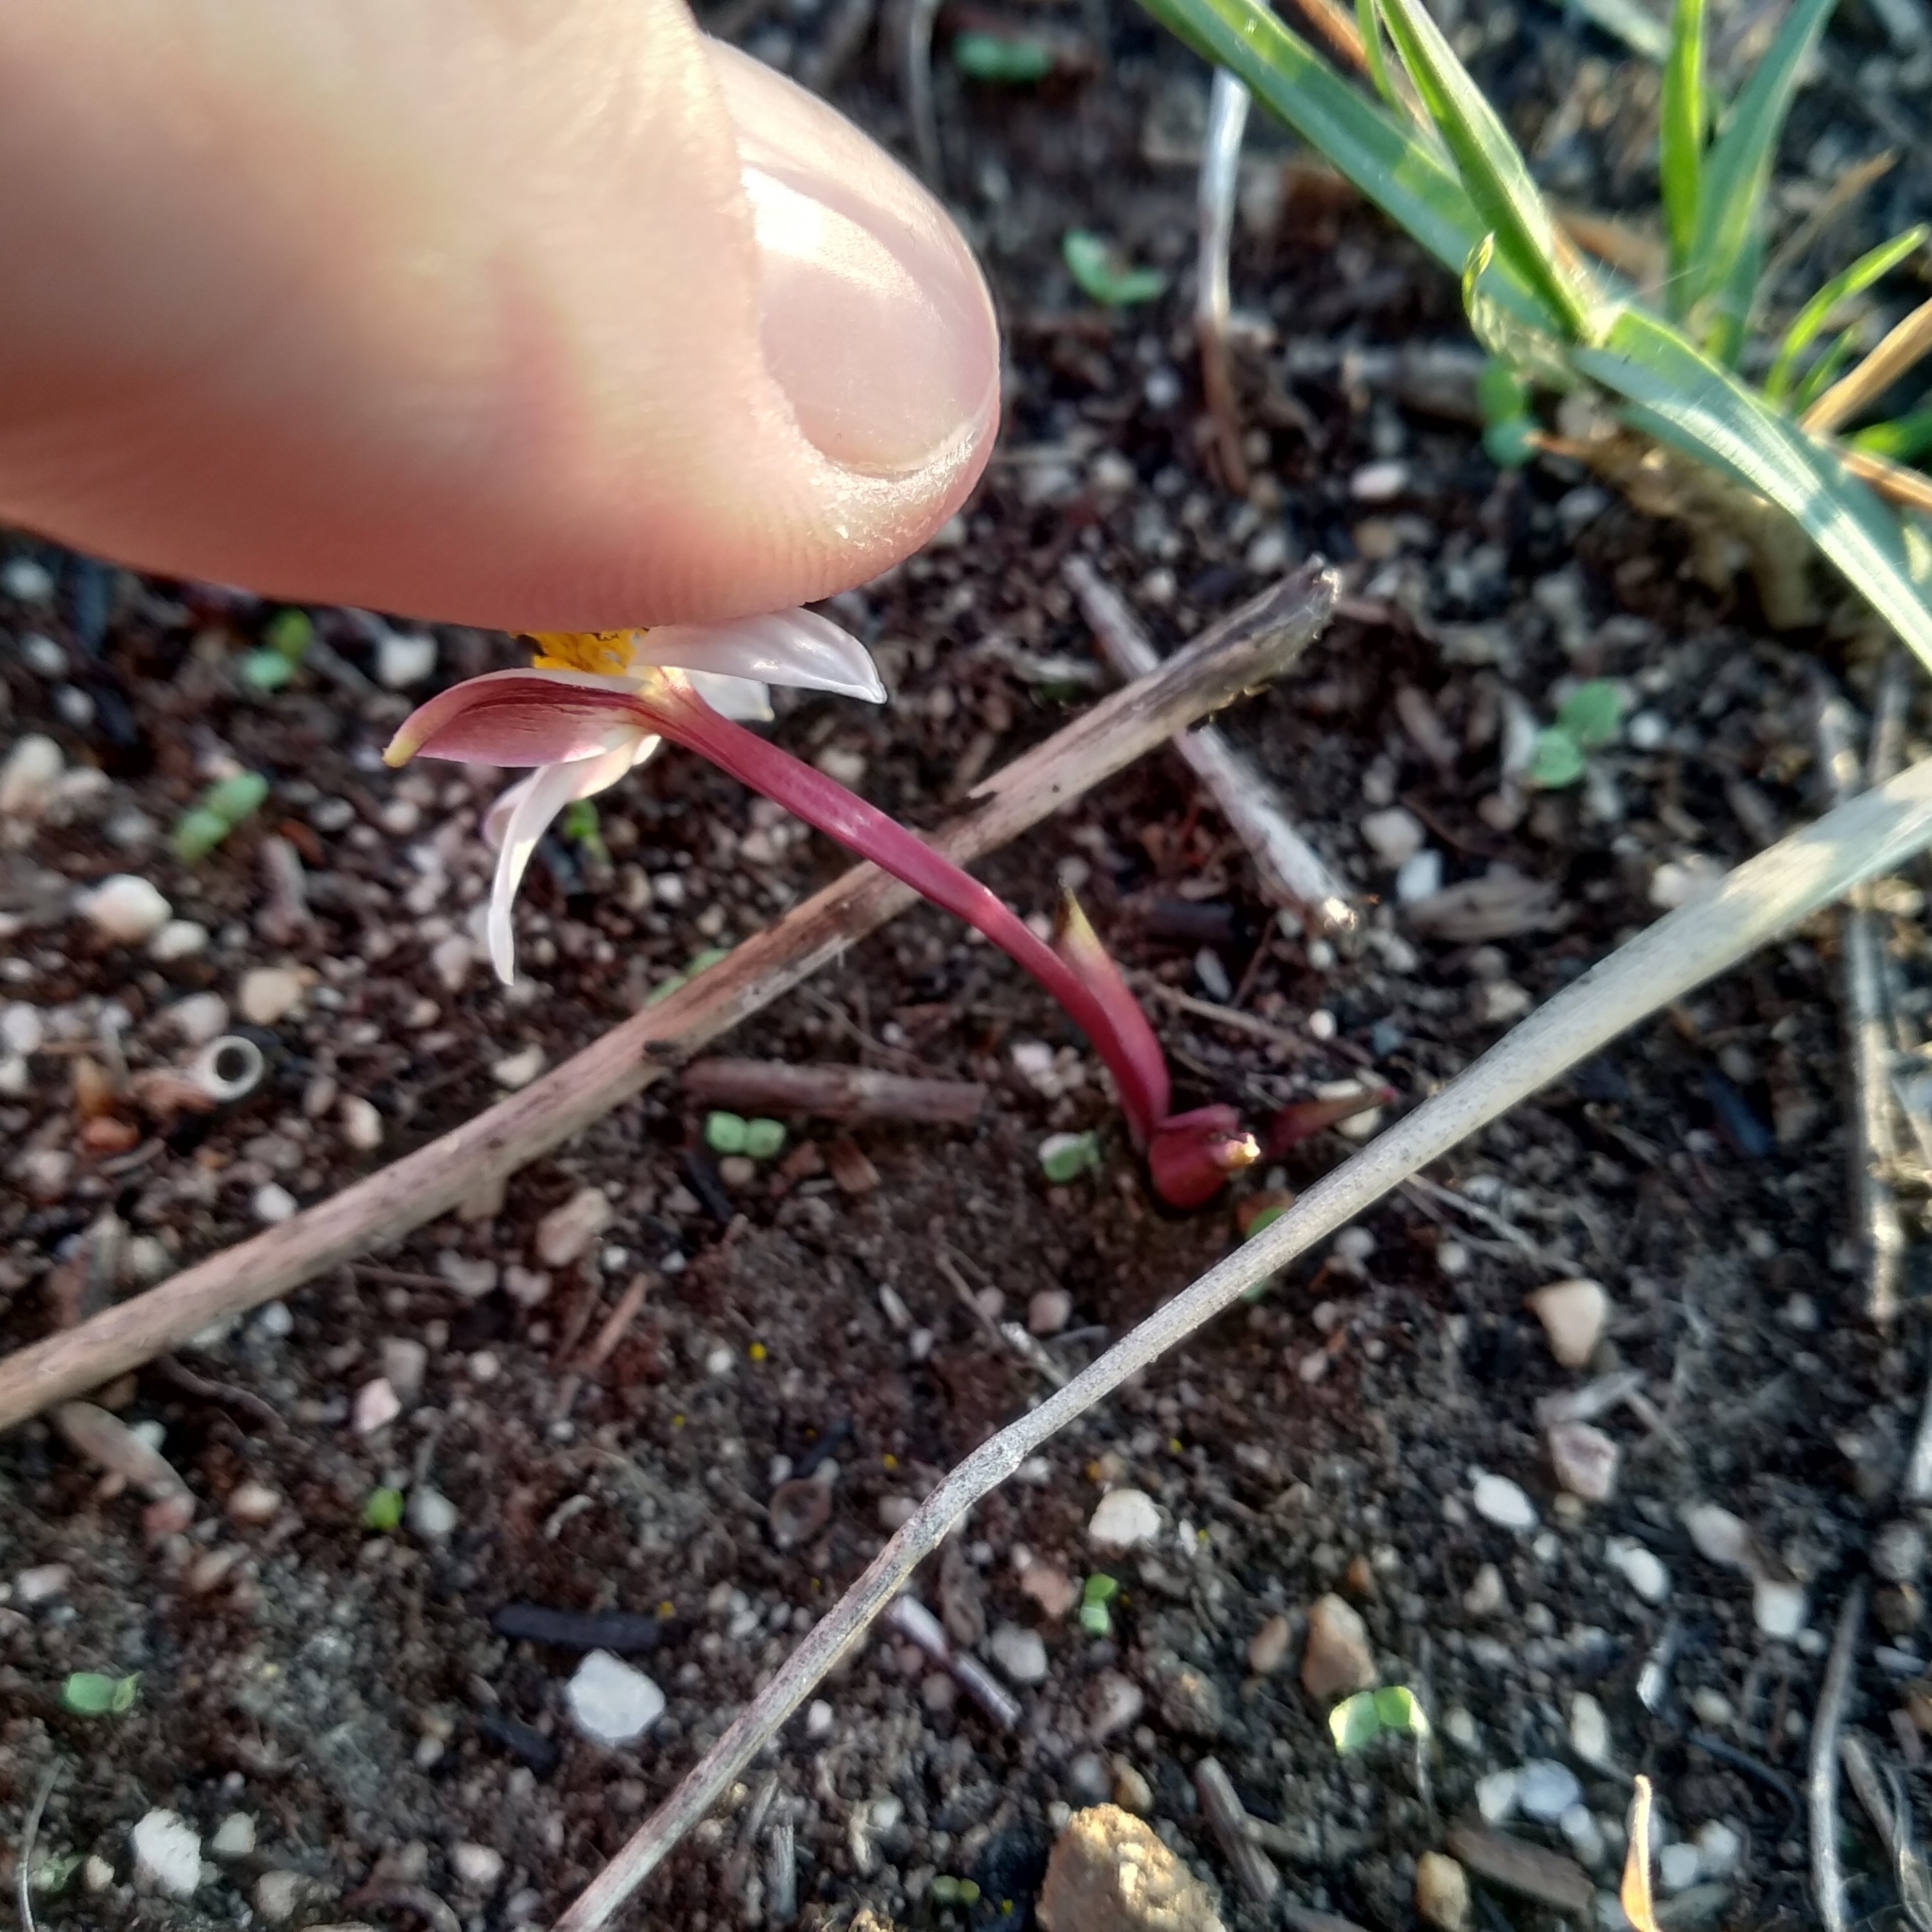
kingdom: Plantae
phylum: Tracheophyta
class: Liliopsida
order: Asparagales
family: Hypoxidaceae
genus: Pauridia
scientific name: Pauridia alba
